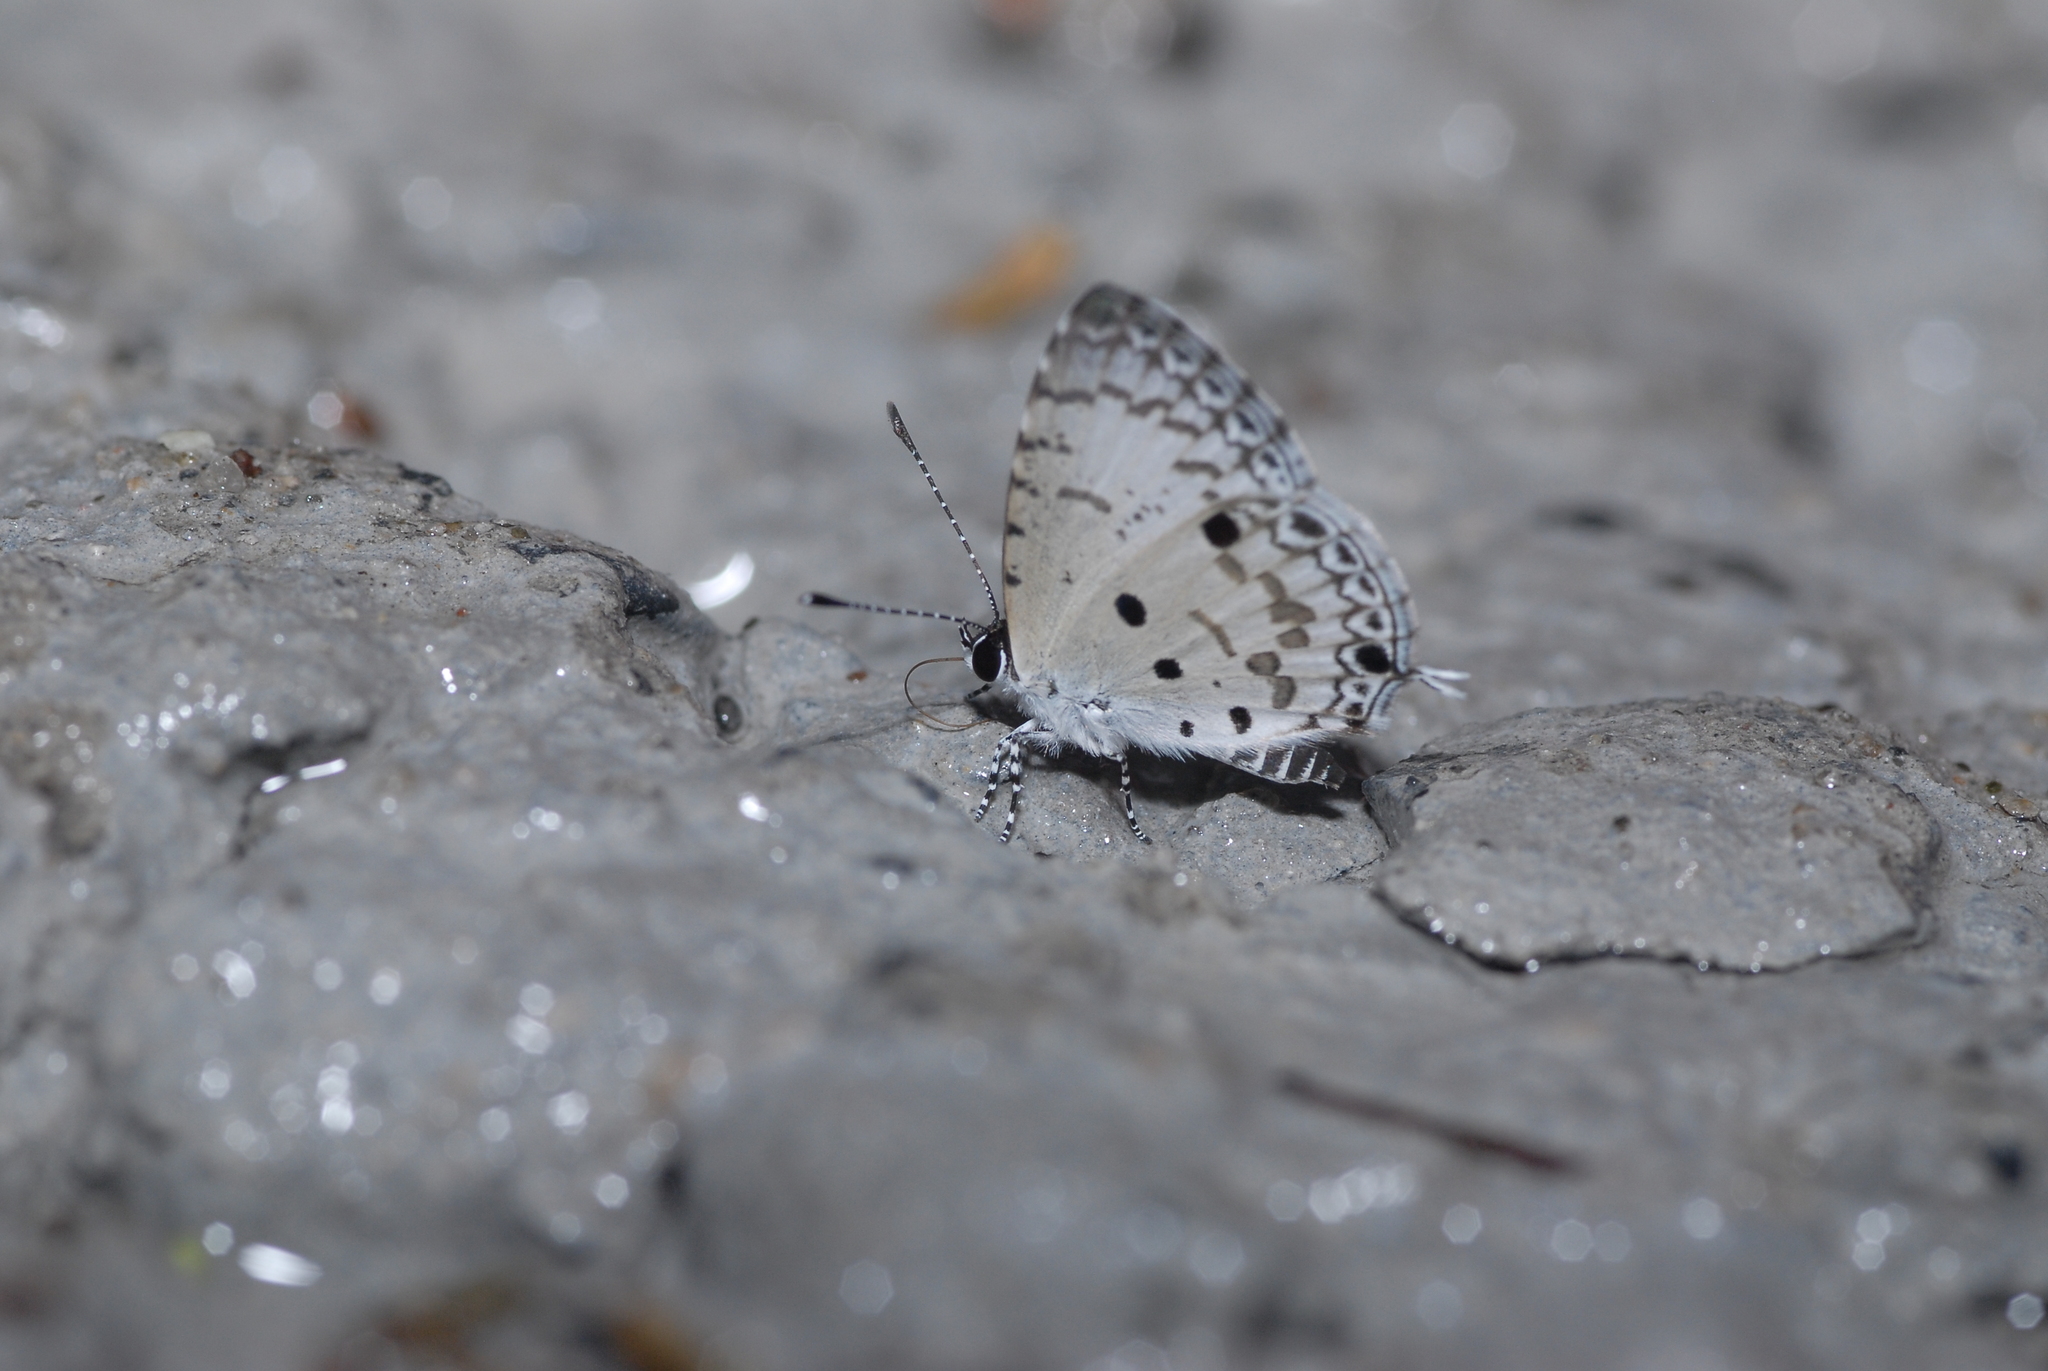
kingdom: Animalia
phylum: Arthropoda
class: Insecta
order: Lepidoptera
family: Lycaenidae
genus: Megisba
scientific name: Megisba malaya
